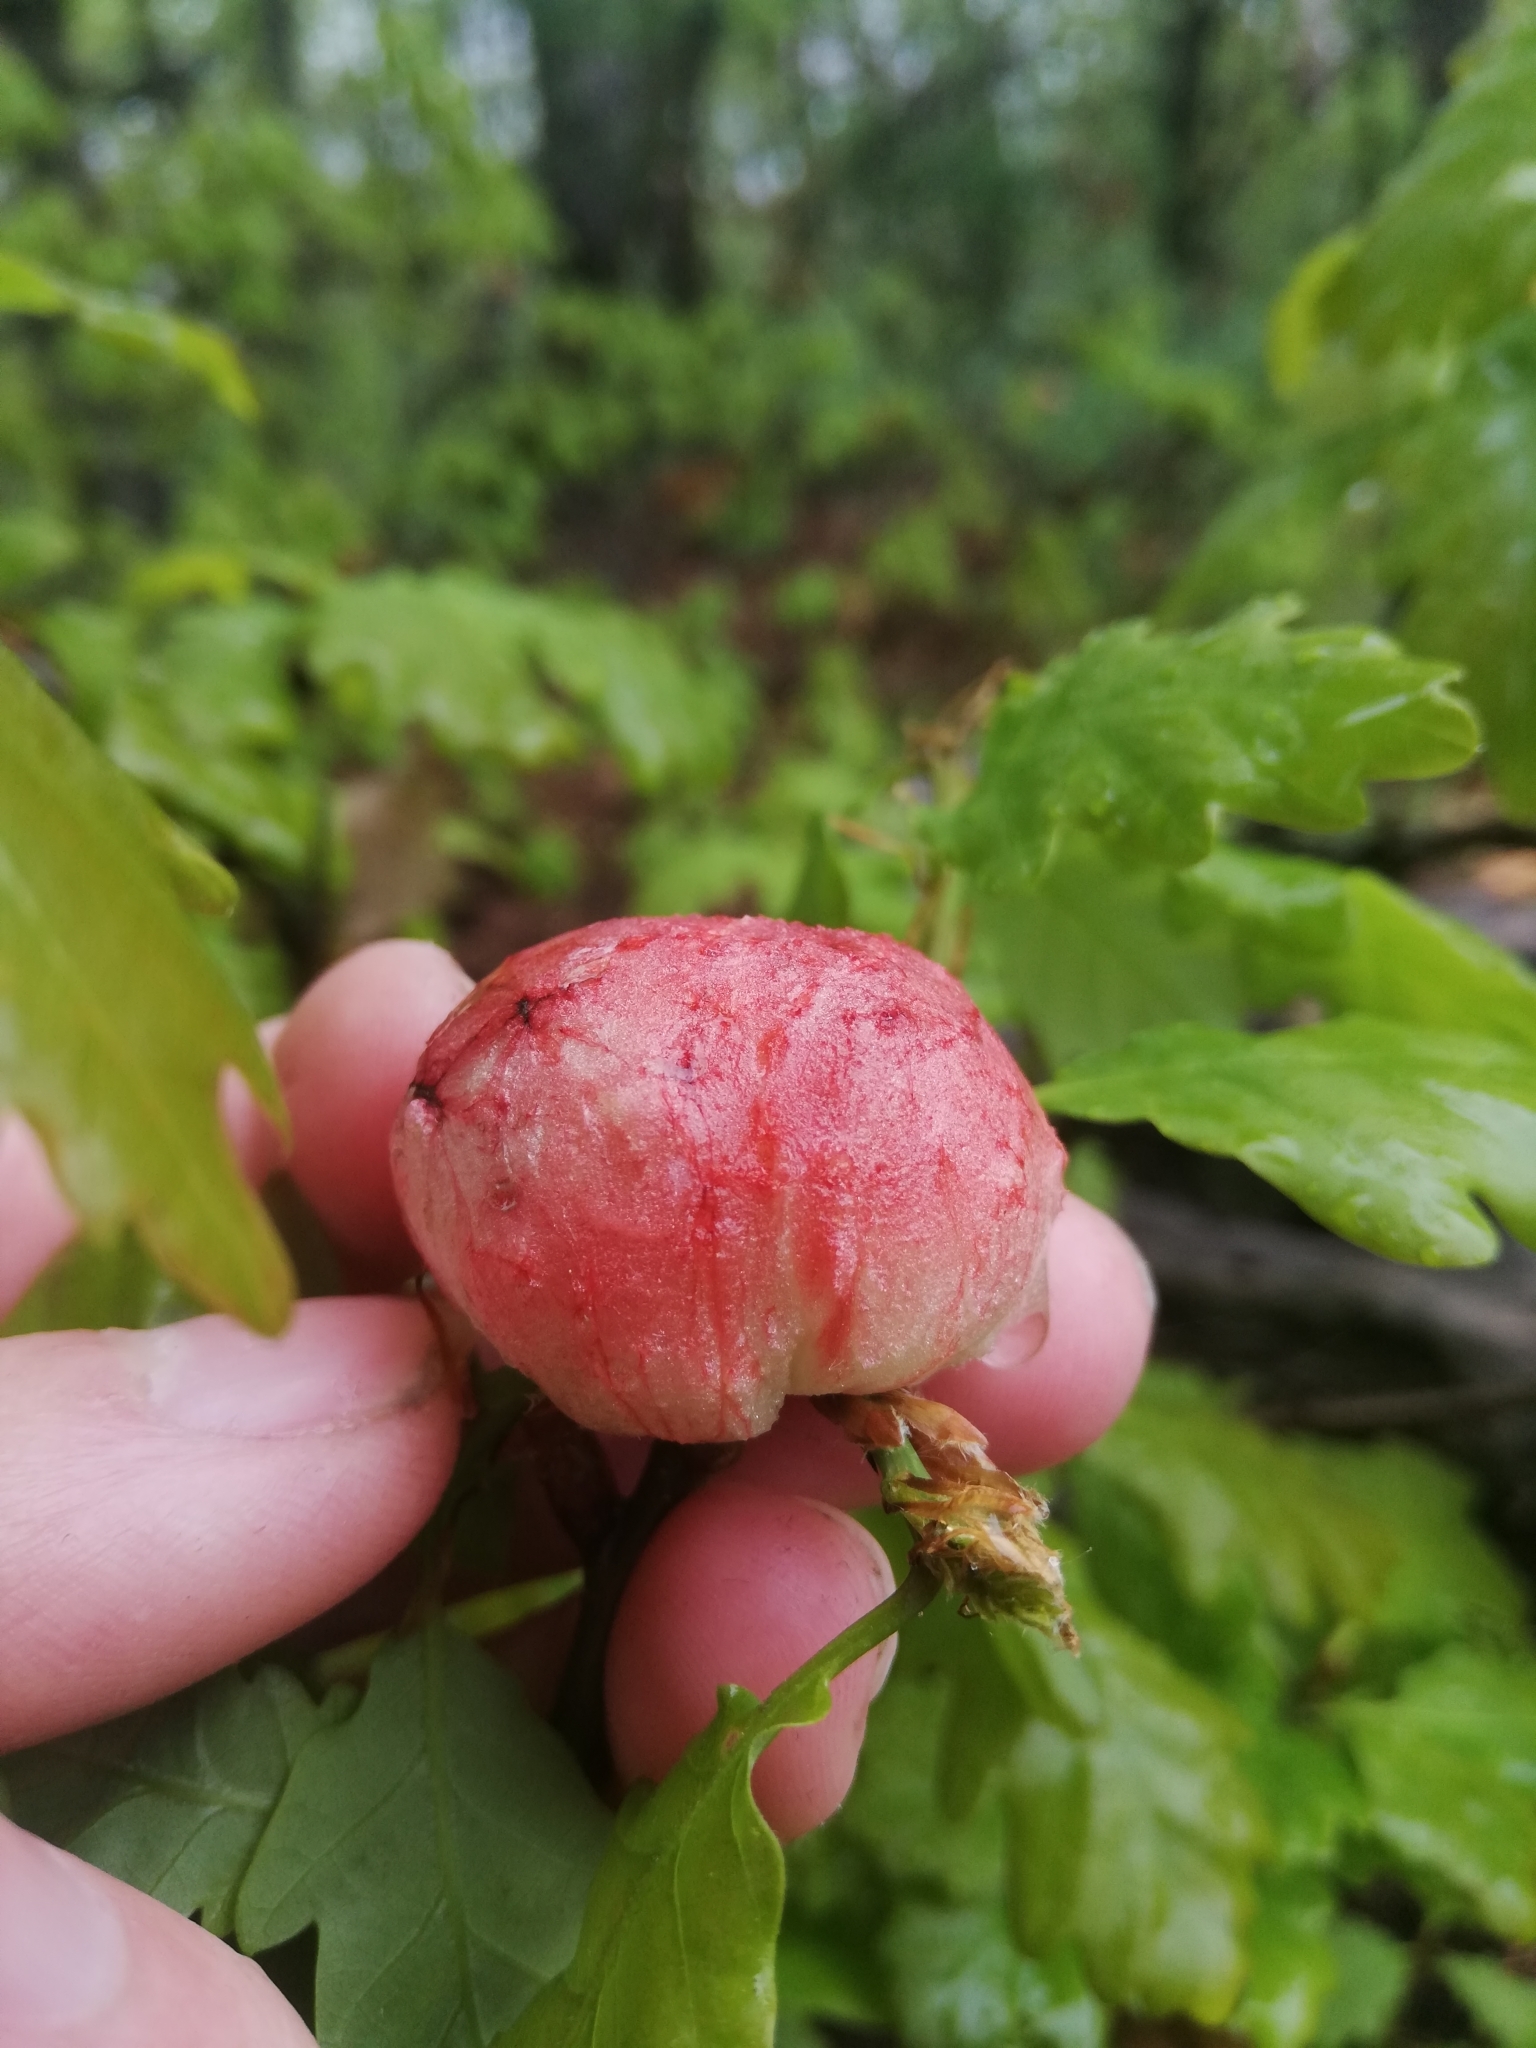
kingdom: Animalia
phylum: Arthropoda
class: Insecta
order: Hymenoptera
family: Cynipidae
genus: Biorhiza
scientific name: Biorhiza pallida
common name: Oak apple
